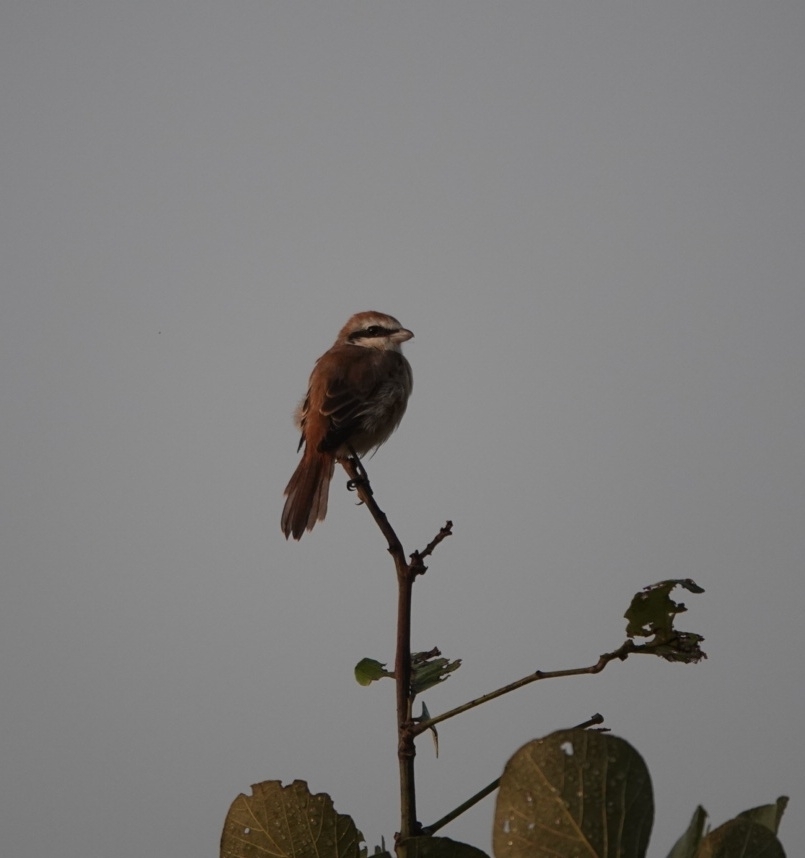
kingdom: Animalia
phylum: Chordata
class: Aves
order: Passeriformes
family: Laniidae
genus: Lanius
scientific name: Lanius cristatus
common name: Brown shrike
